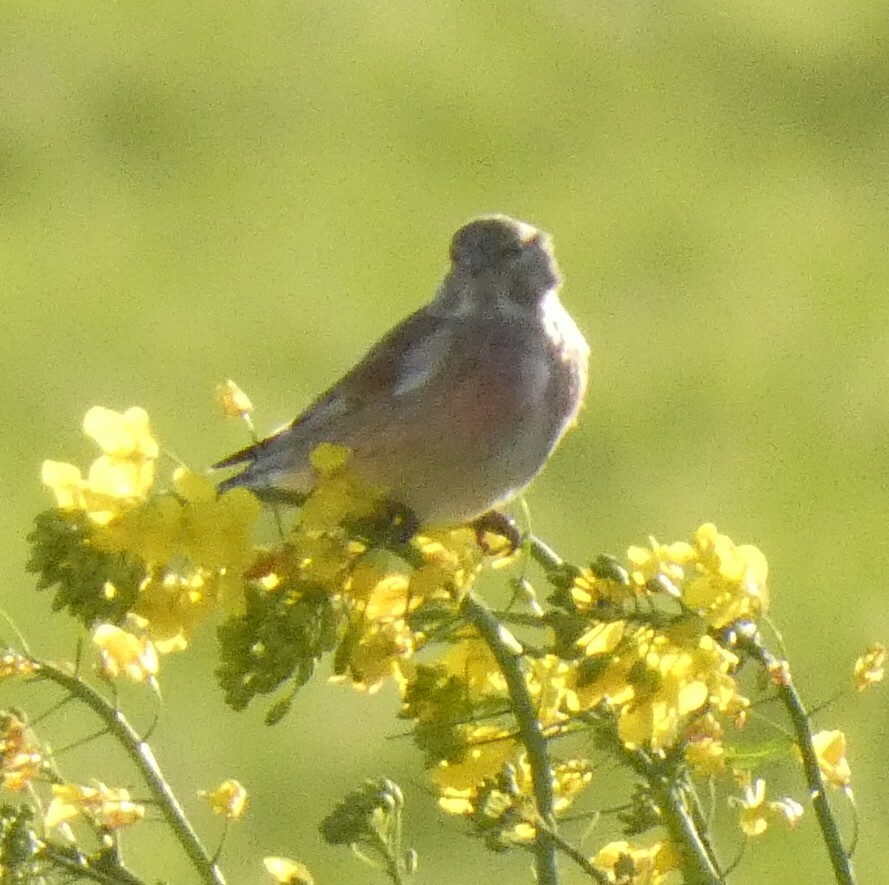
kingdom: Animalia
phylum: Chordata
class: Aves
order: Passeriformes
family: Fringillidae
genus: Linaria
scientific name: Linaria cannabina
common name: Common linnet
